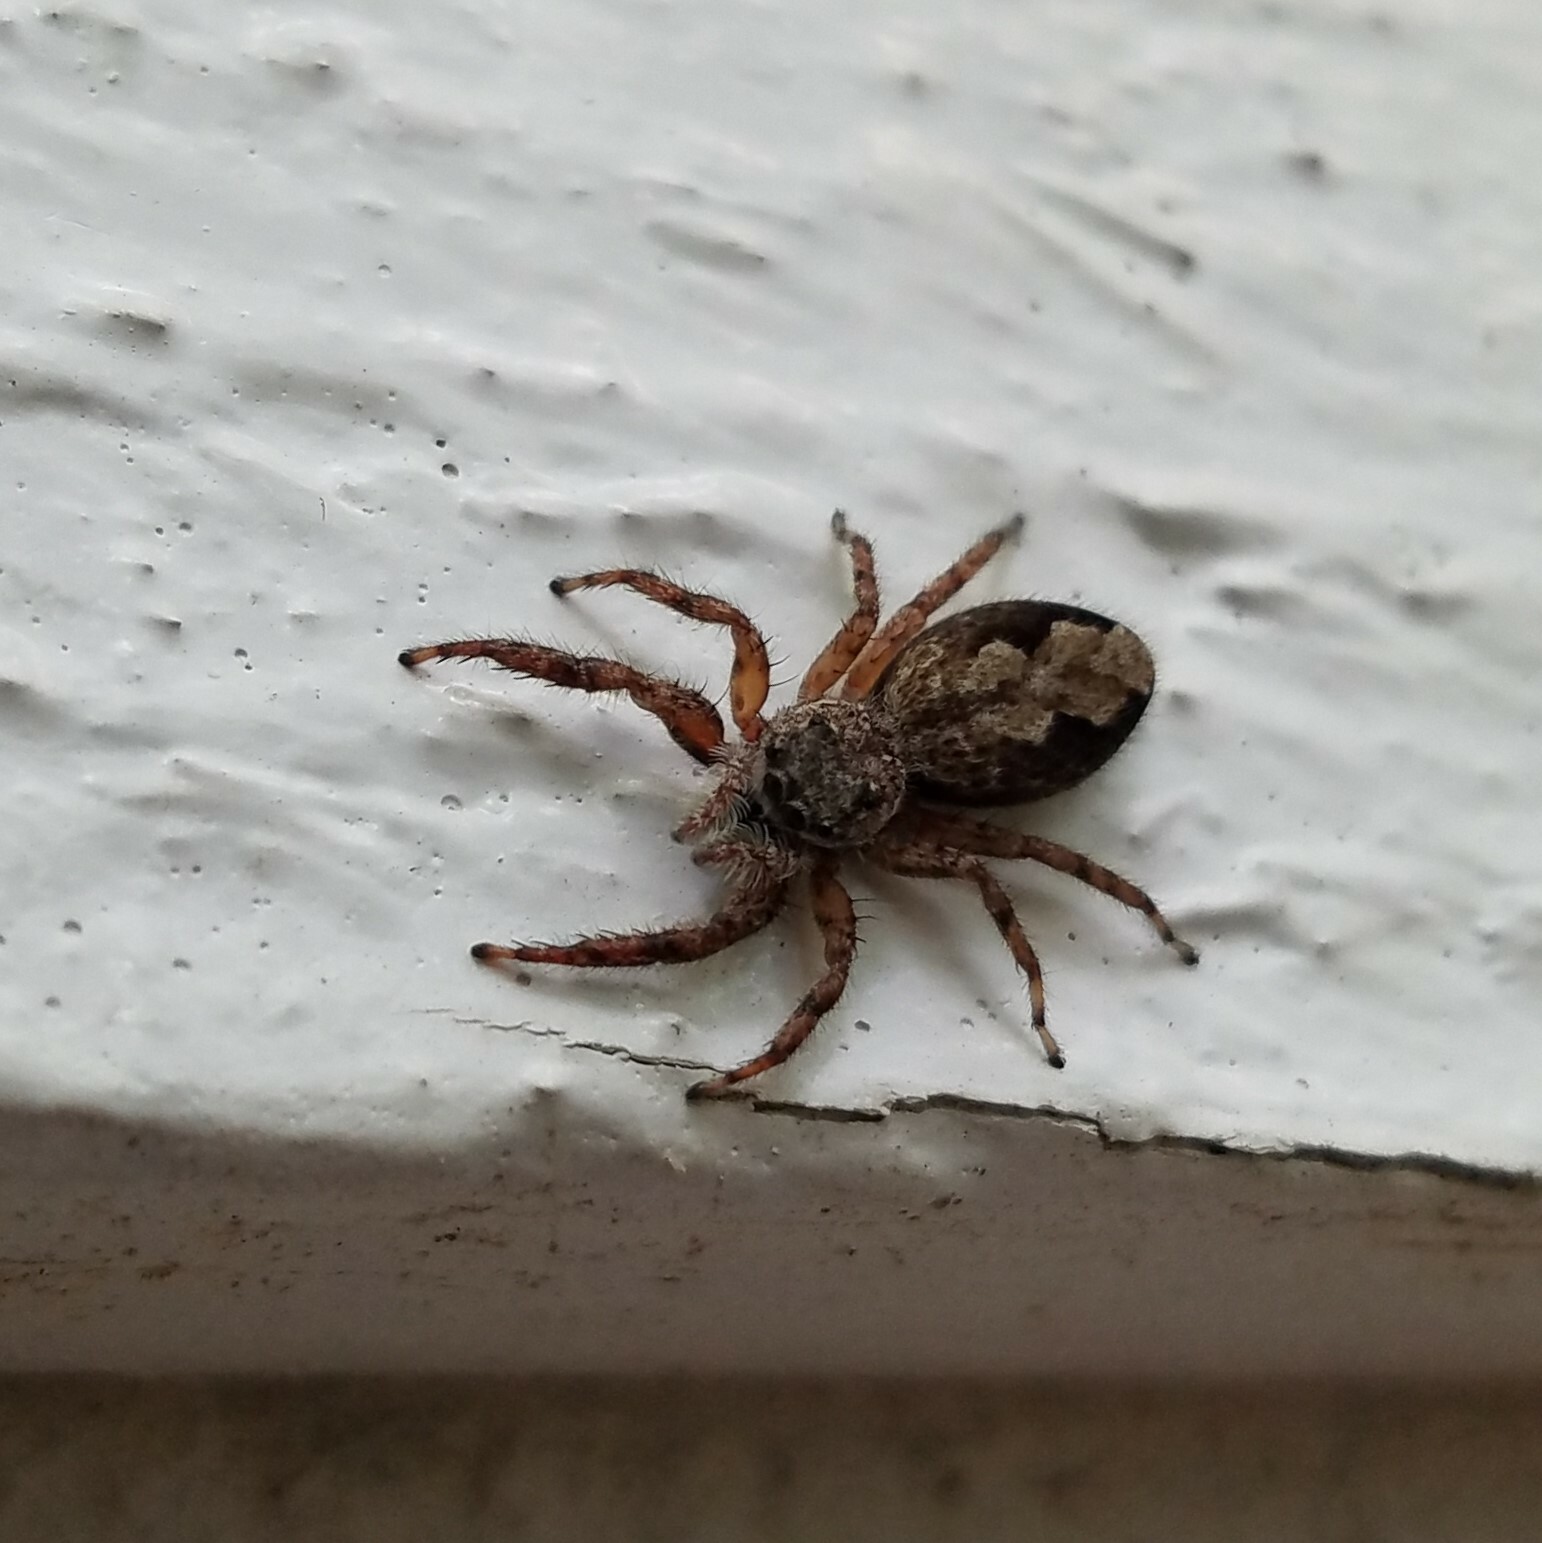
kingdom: Animalia
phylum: Arthropoda
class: Arachnida
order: Araneae
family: Salticidae
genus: Platycryptus
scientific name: Platycryptus undatus
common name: Tan jumping spider
